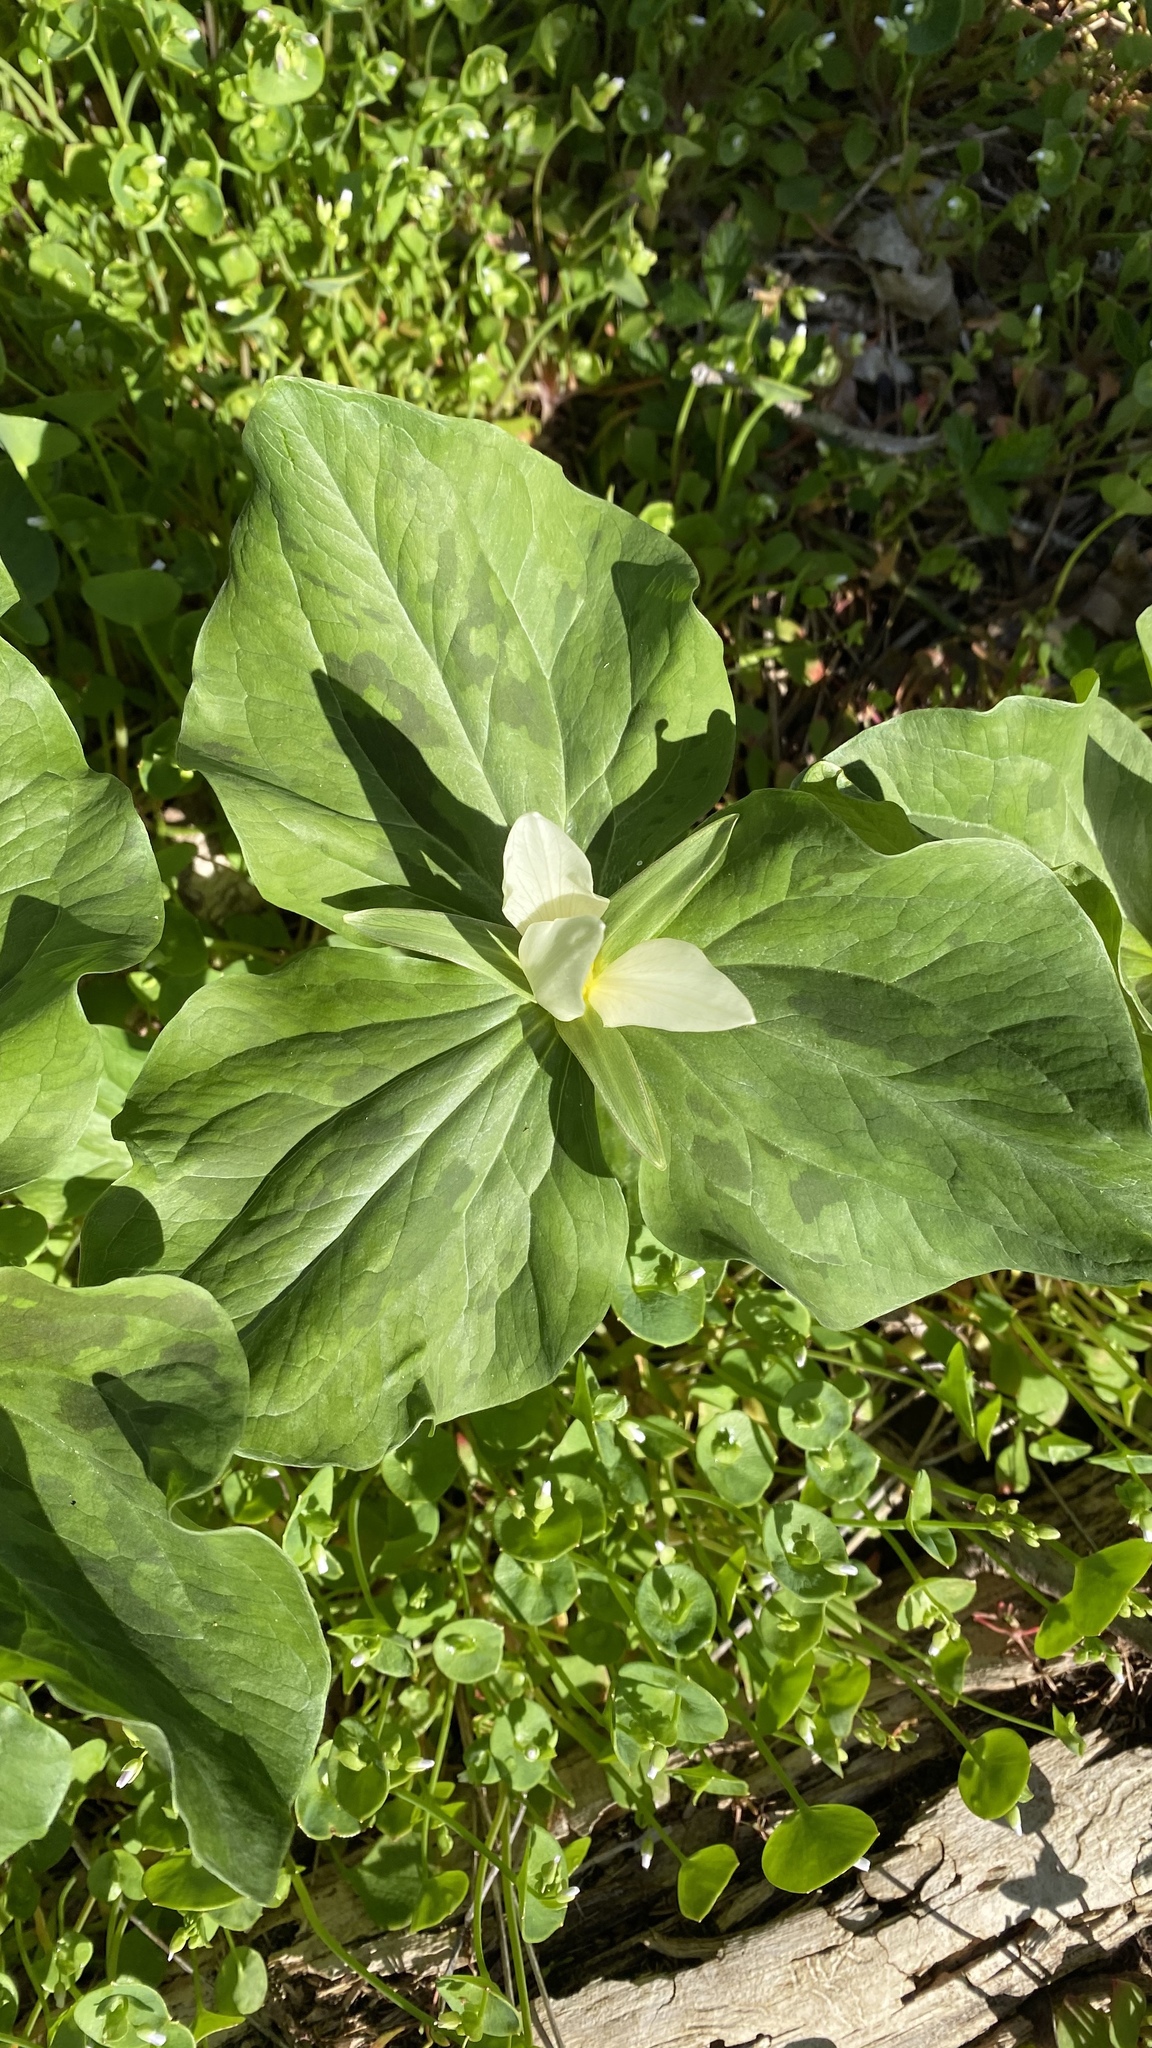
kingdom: Plantae
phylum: Tracheophyta
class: Liliopsida
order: Liliales
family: Melanthiaceae
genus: Trillium
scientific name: Trillium albidum
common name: Freeman's trillium
